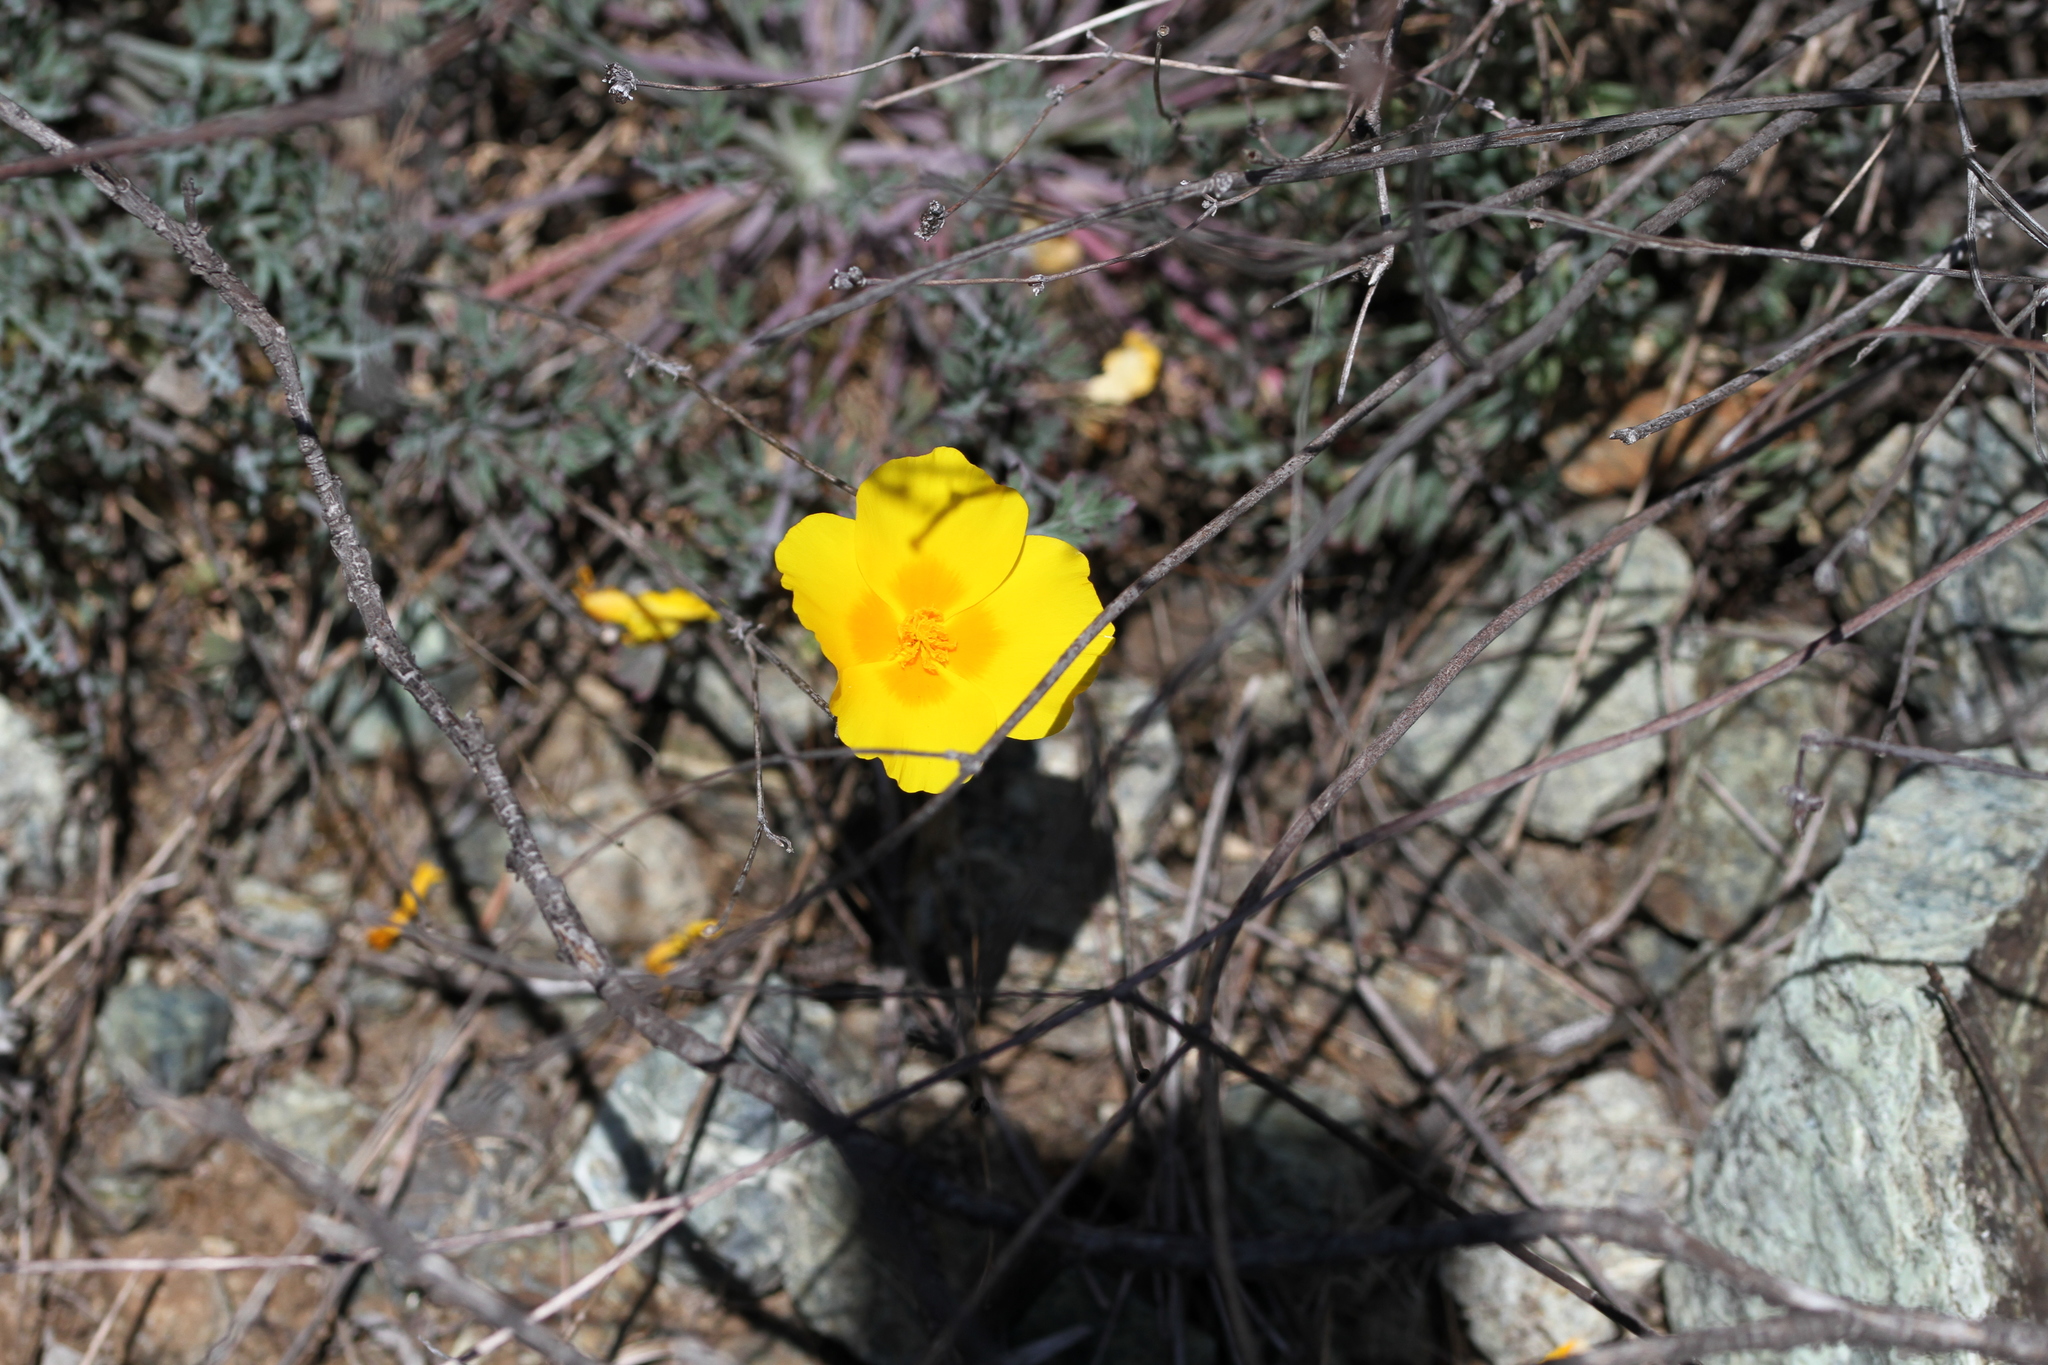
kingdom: Plantae
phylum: Tracheophyta
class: Magnoliopsida
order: Ranunculales
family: Papaveraceae
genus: Eschscholzia
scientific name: Eschscholzia
